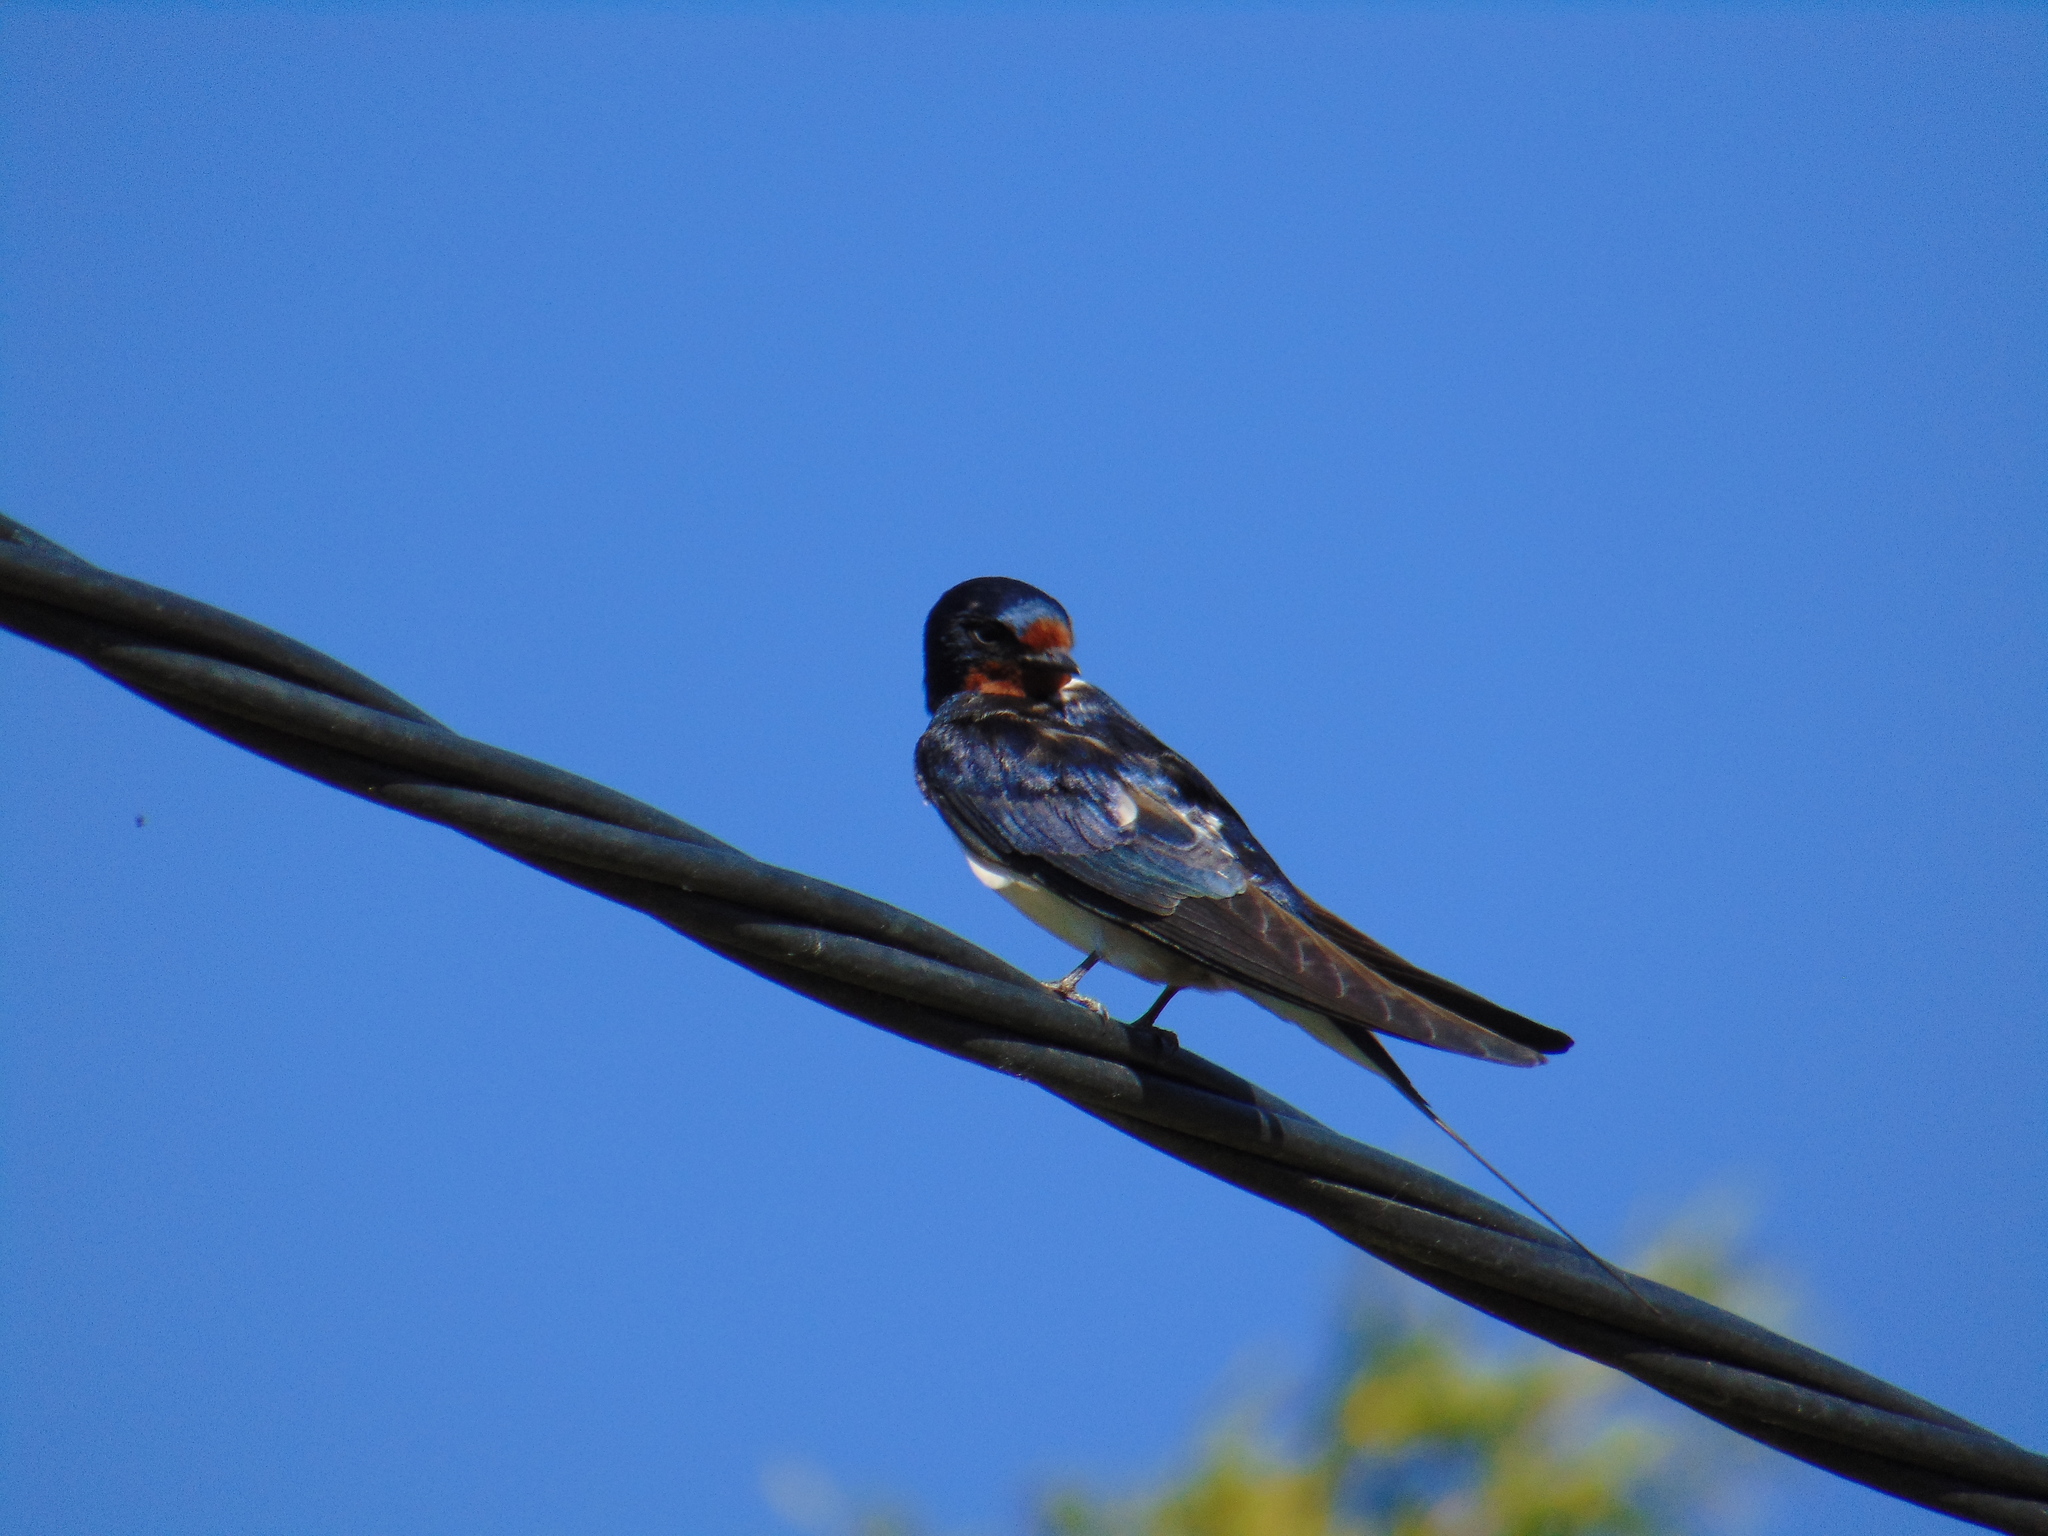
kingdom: Animalia
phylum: Chordata
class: Aves
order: Passeriformes
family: Hirundinidae
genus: Hirundo
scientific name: Hirundo rustica
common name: Barn swallow
